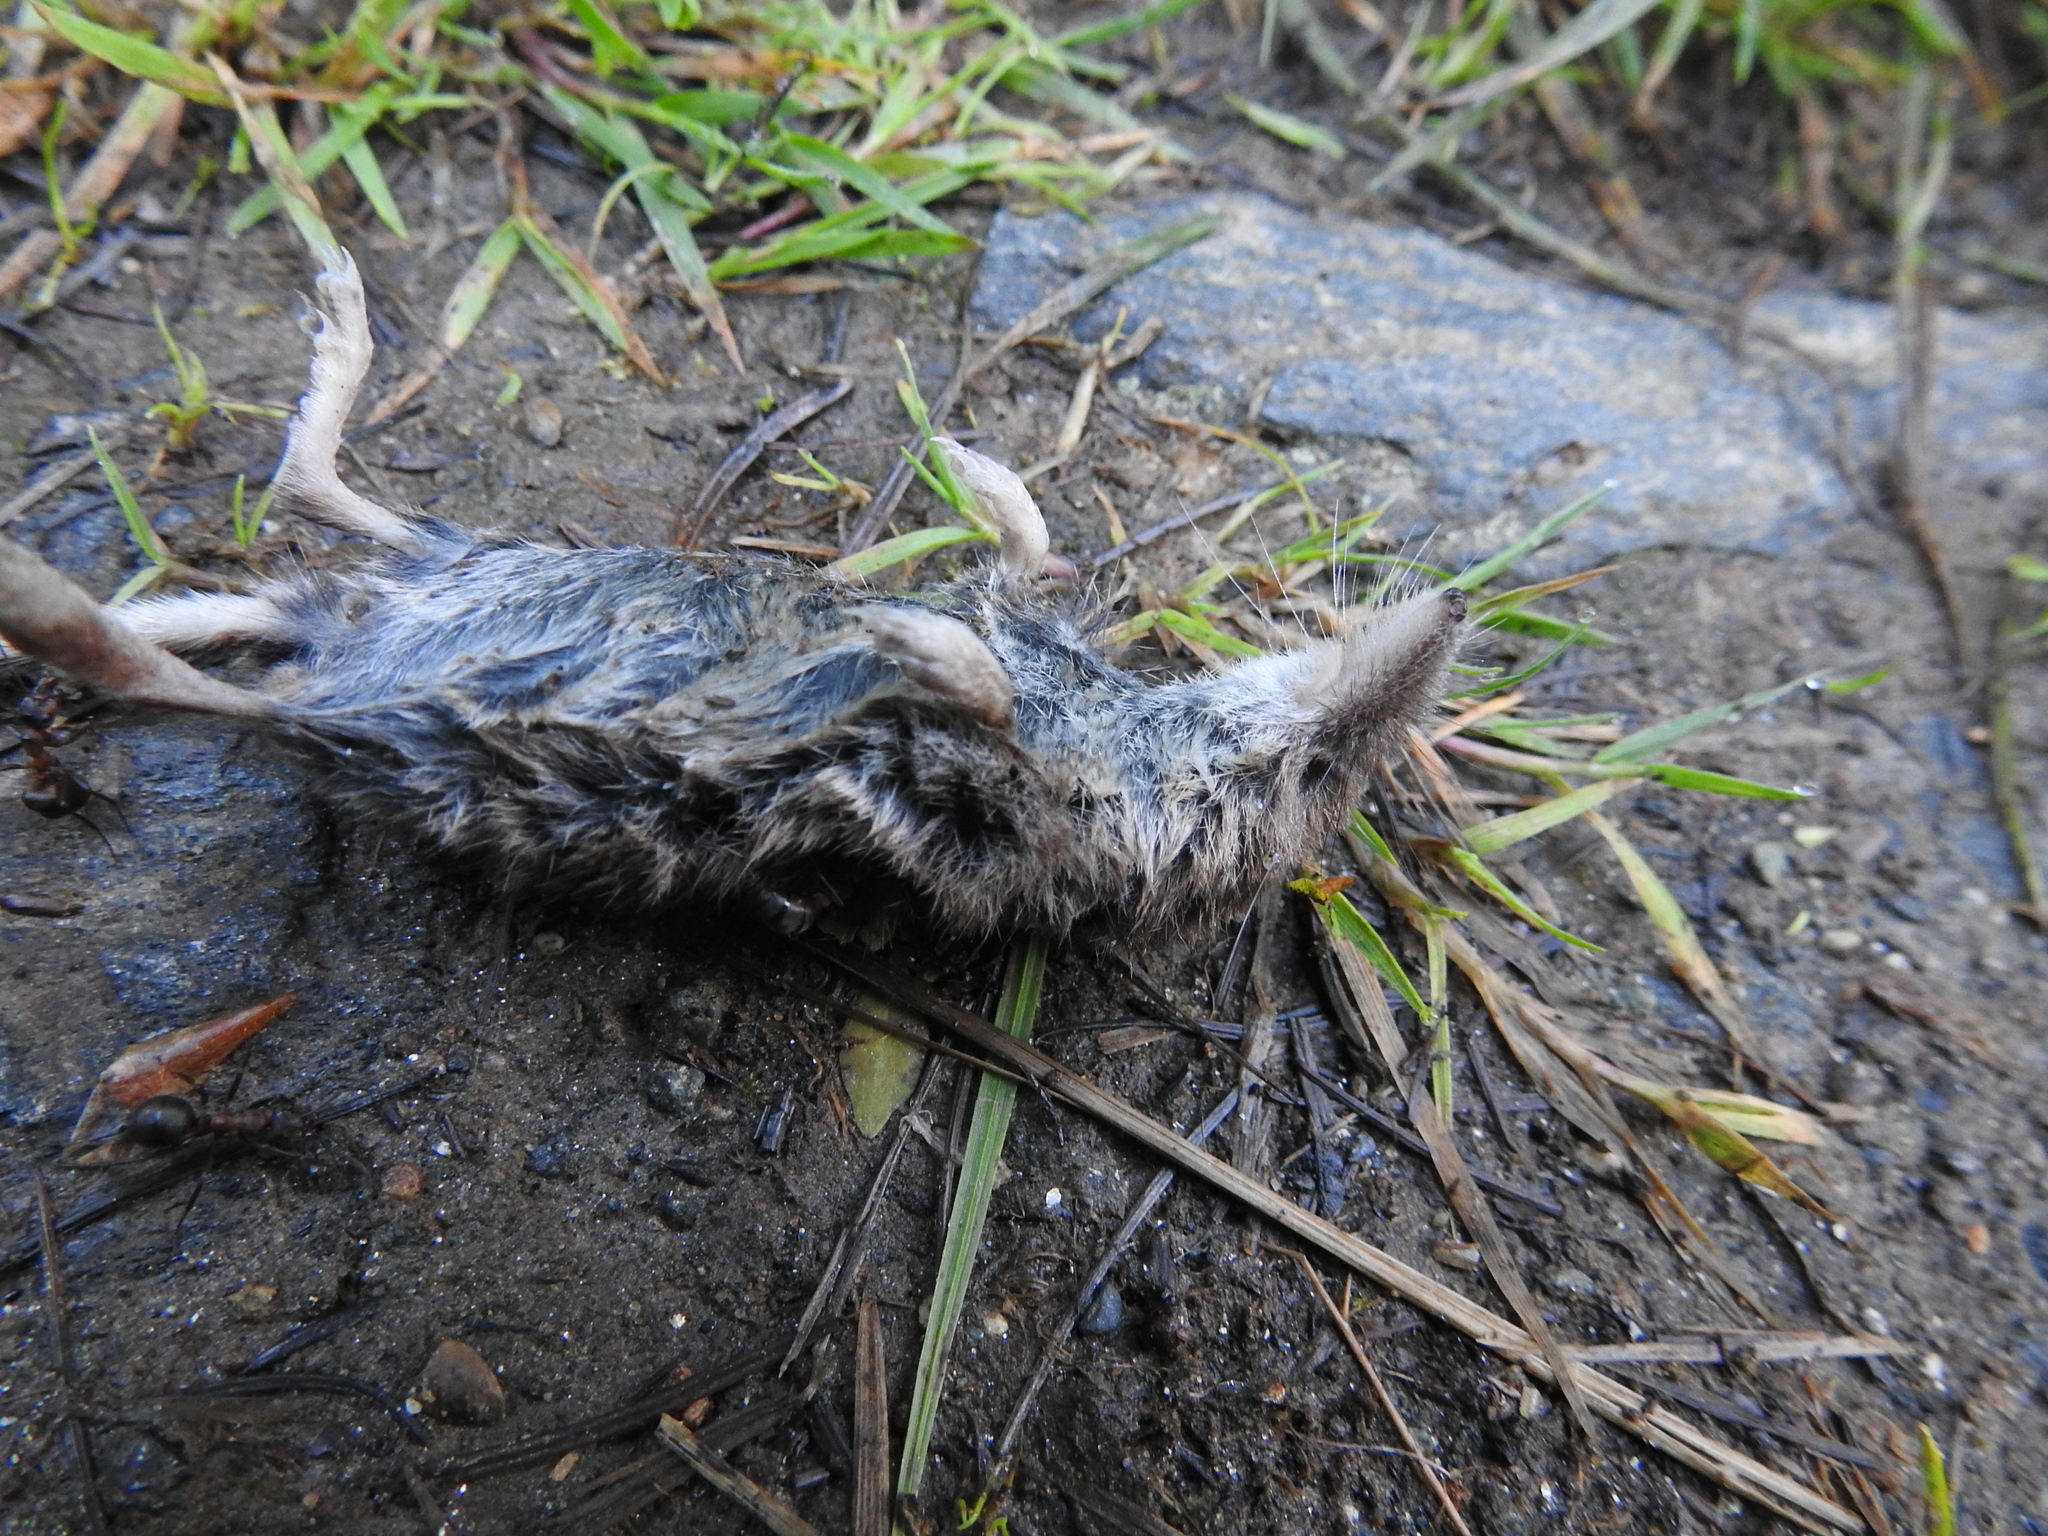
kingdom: Animalia
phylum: Chordata
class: Mammalia
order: Soricomorpha
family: Soricidae
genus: Sorex
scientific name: Sorex minutus
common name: Eurasian pygmy shrew
